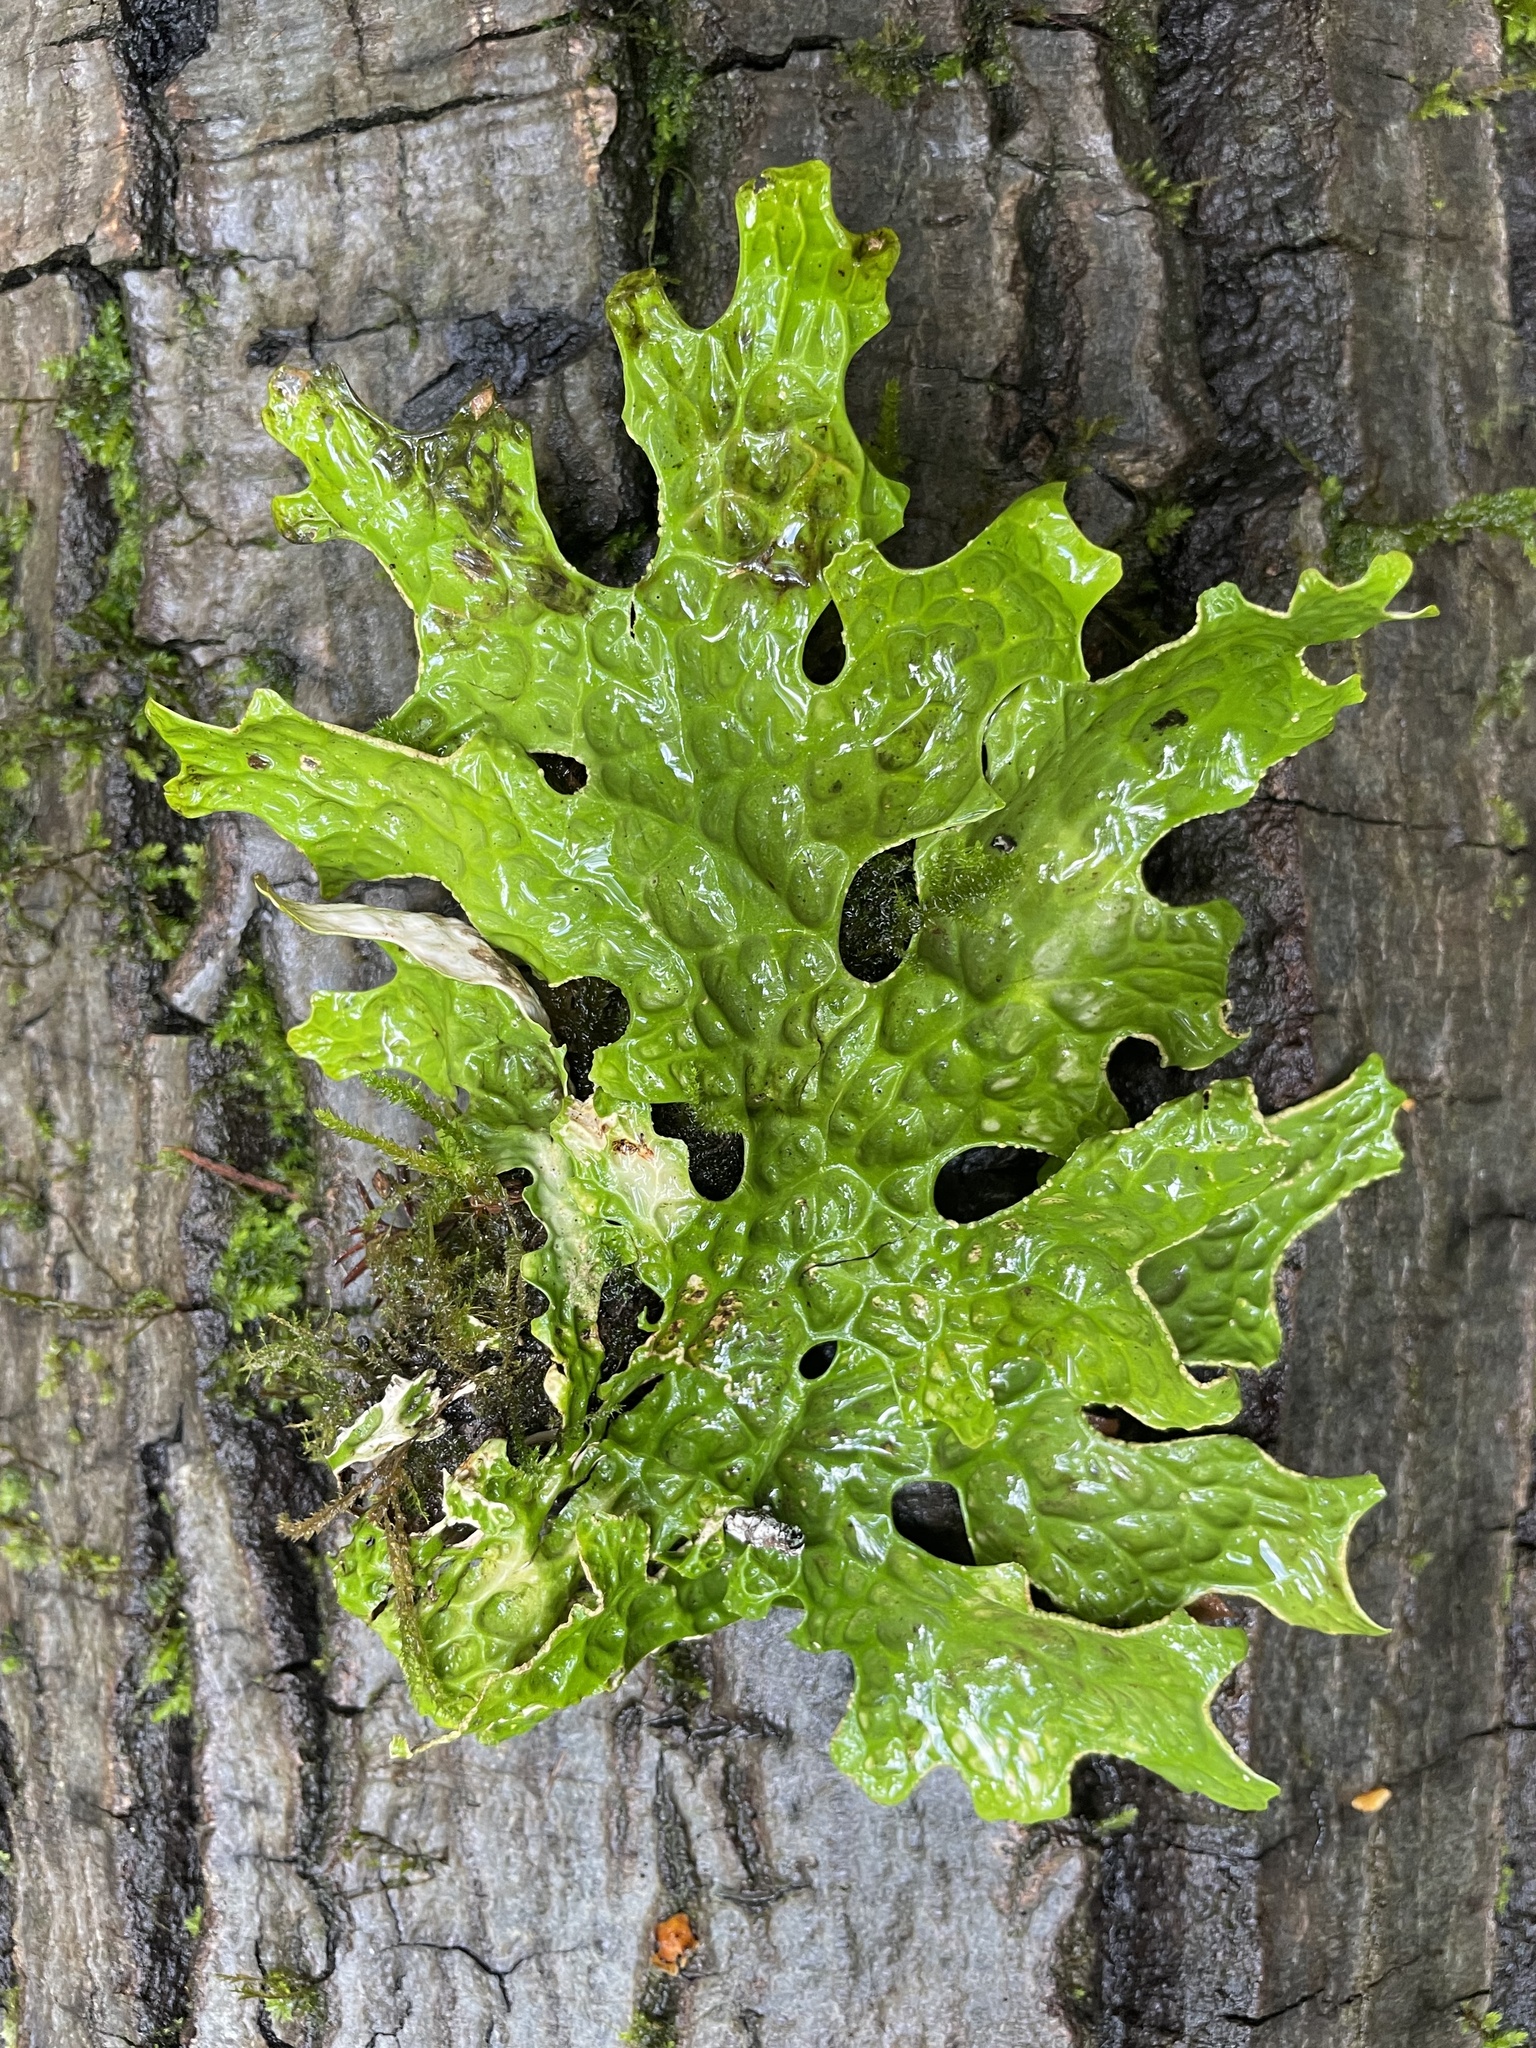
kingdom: Fungi
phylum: Ascomycota
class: Lecanoromycetes
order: Peltigerales
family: Lobariaceae
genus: Lobaria
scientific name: Lobaria pulmonaria
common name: Lungwort
